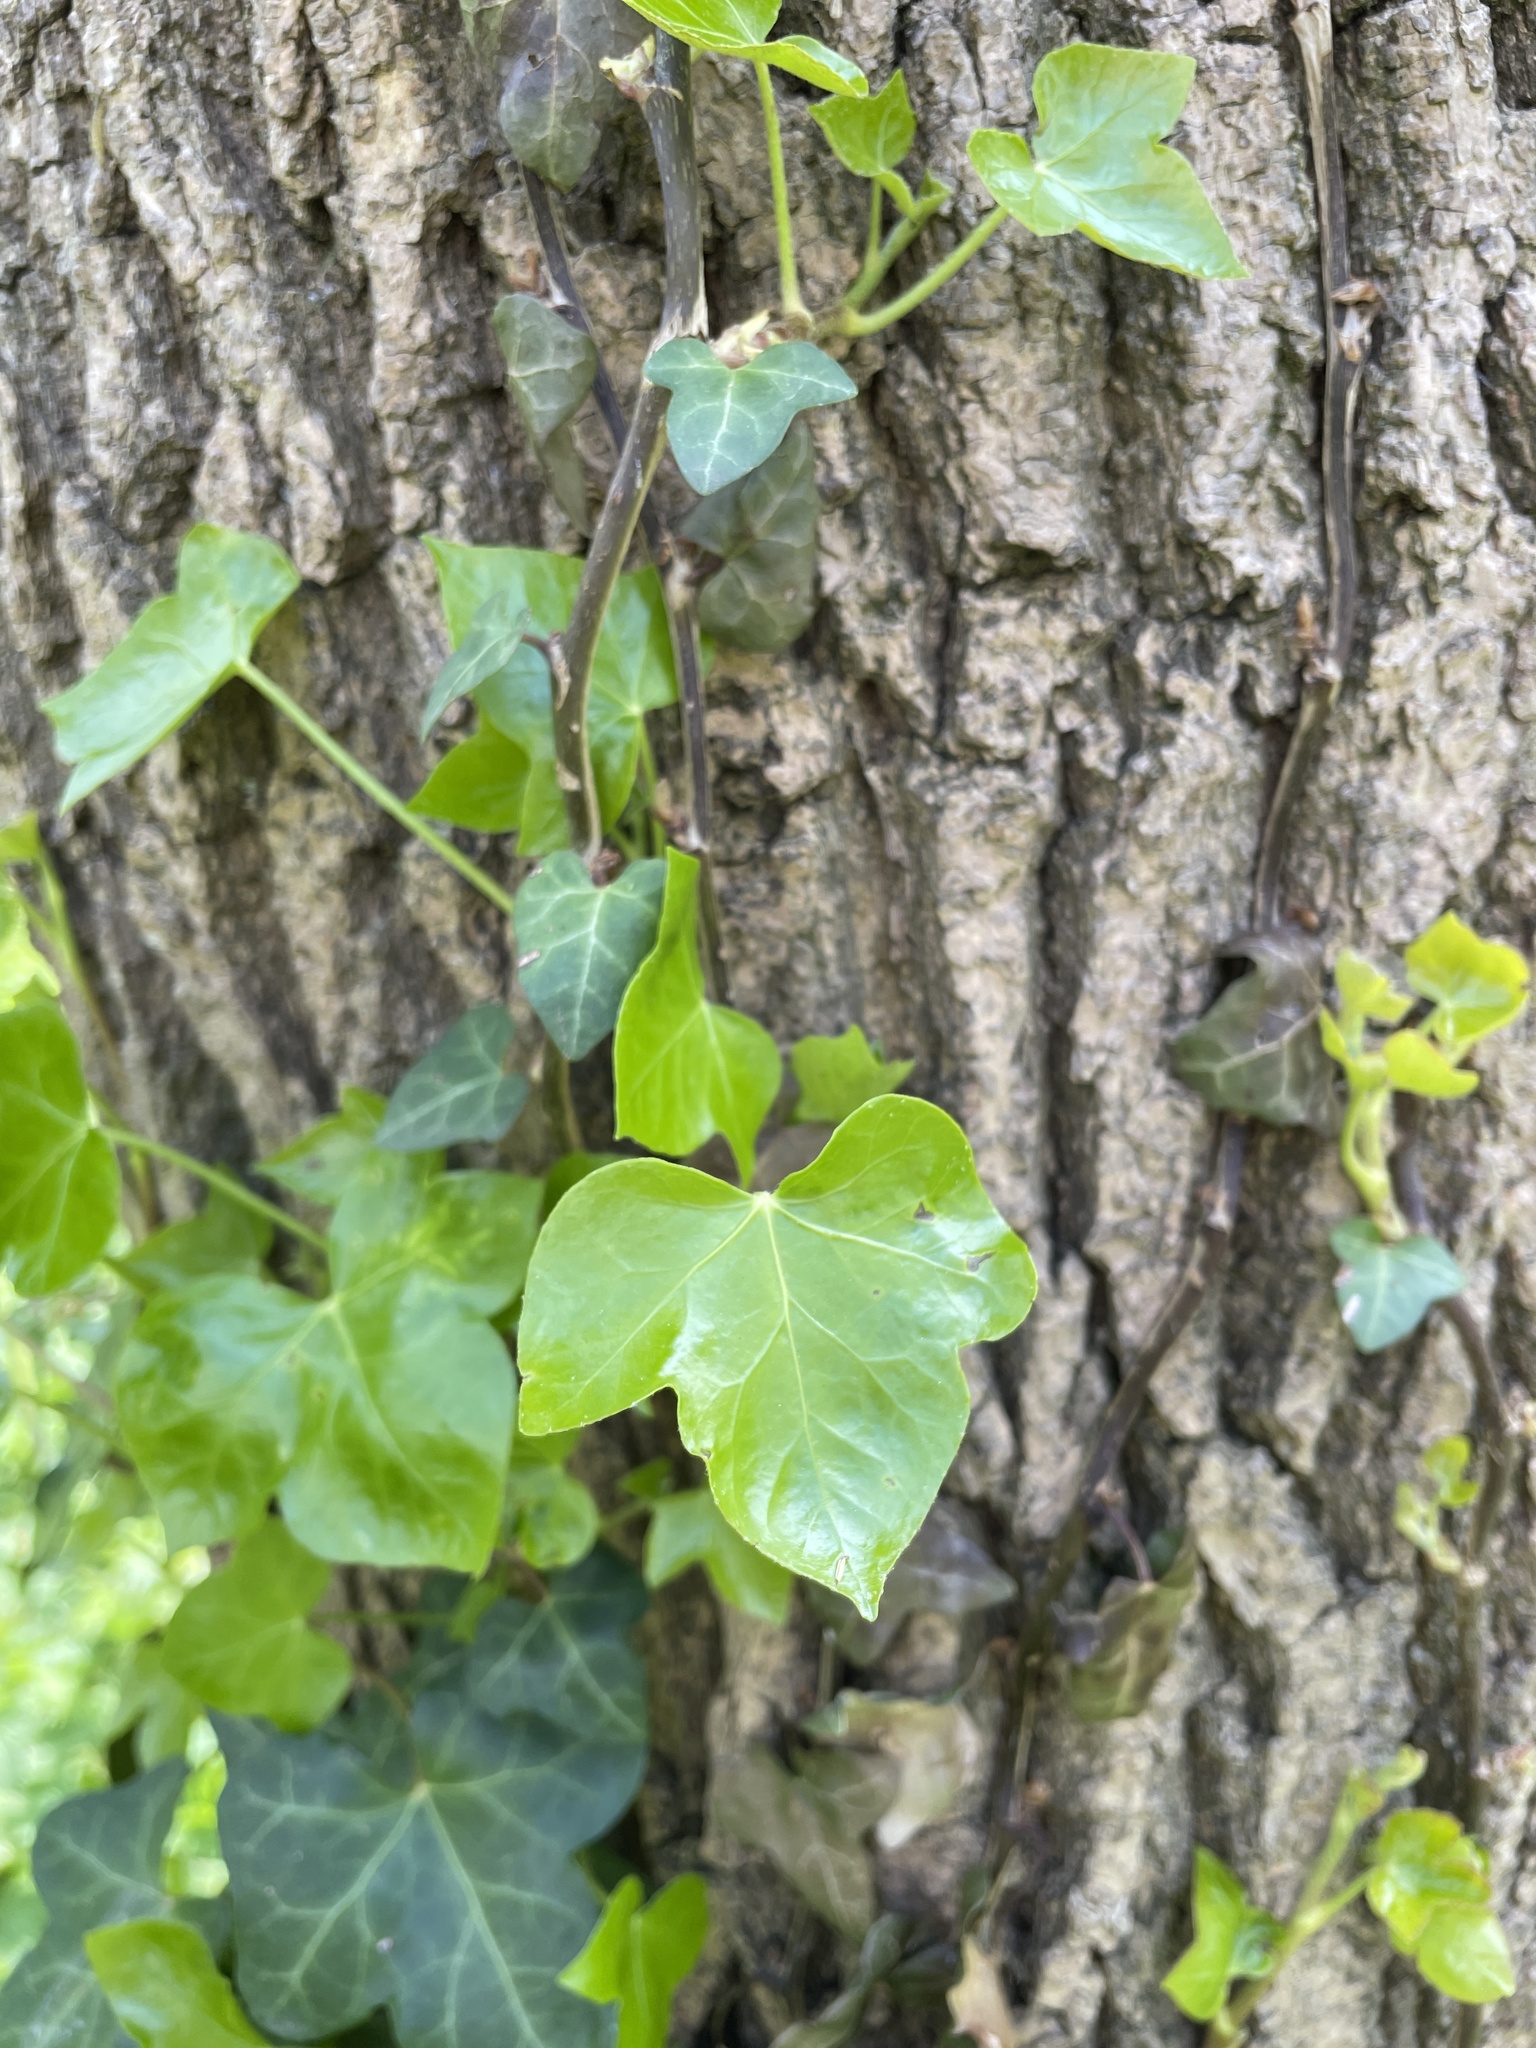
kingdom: Plantae
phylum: Tracheophyta
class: Magnoliopsida
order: Apiales
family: Araliaceae
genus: Hedera
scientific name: Hedera helix
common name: Ivy
